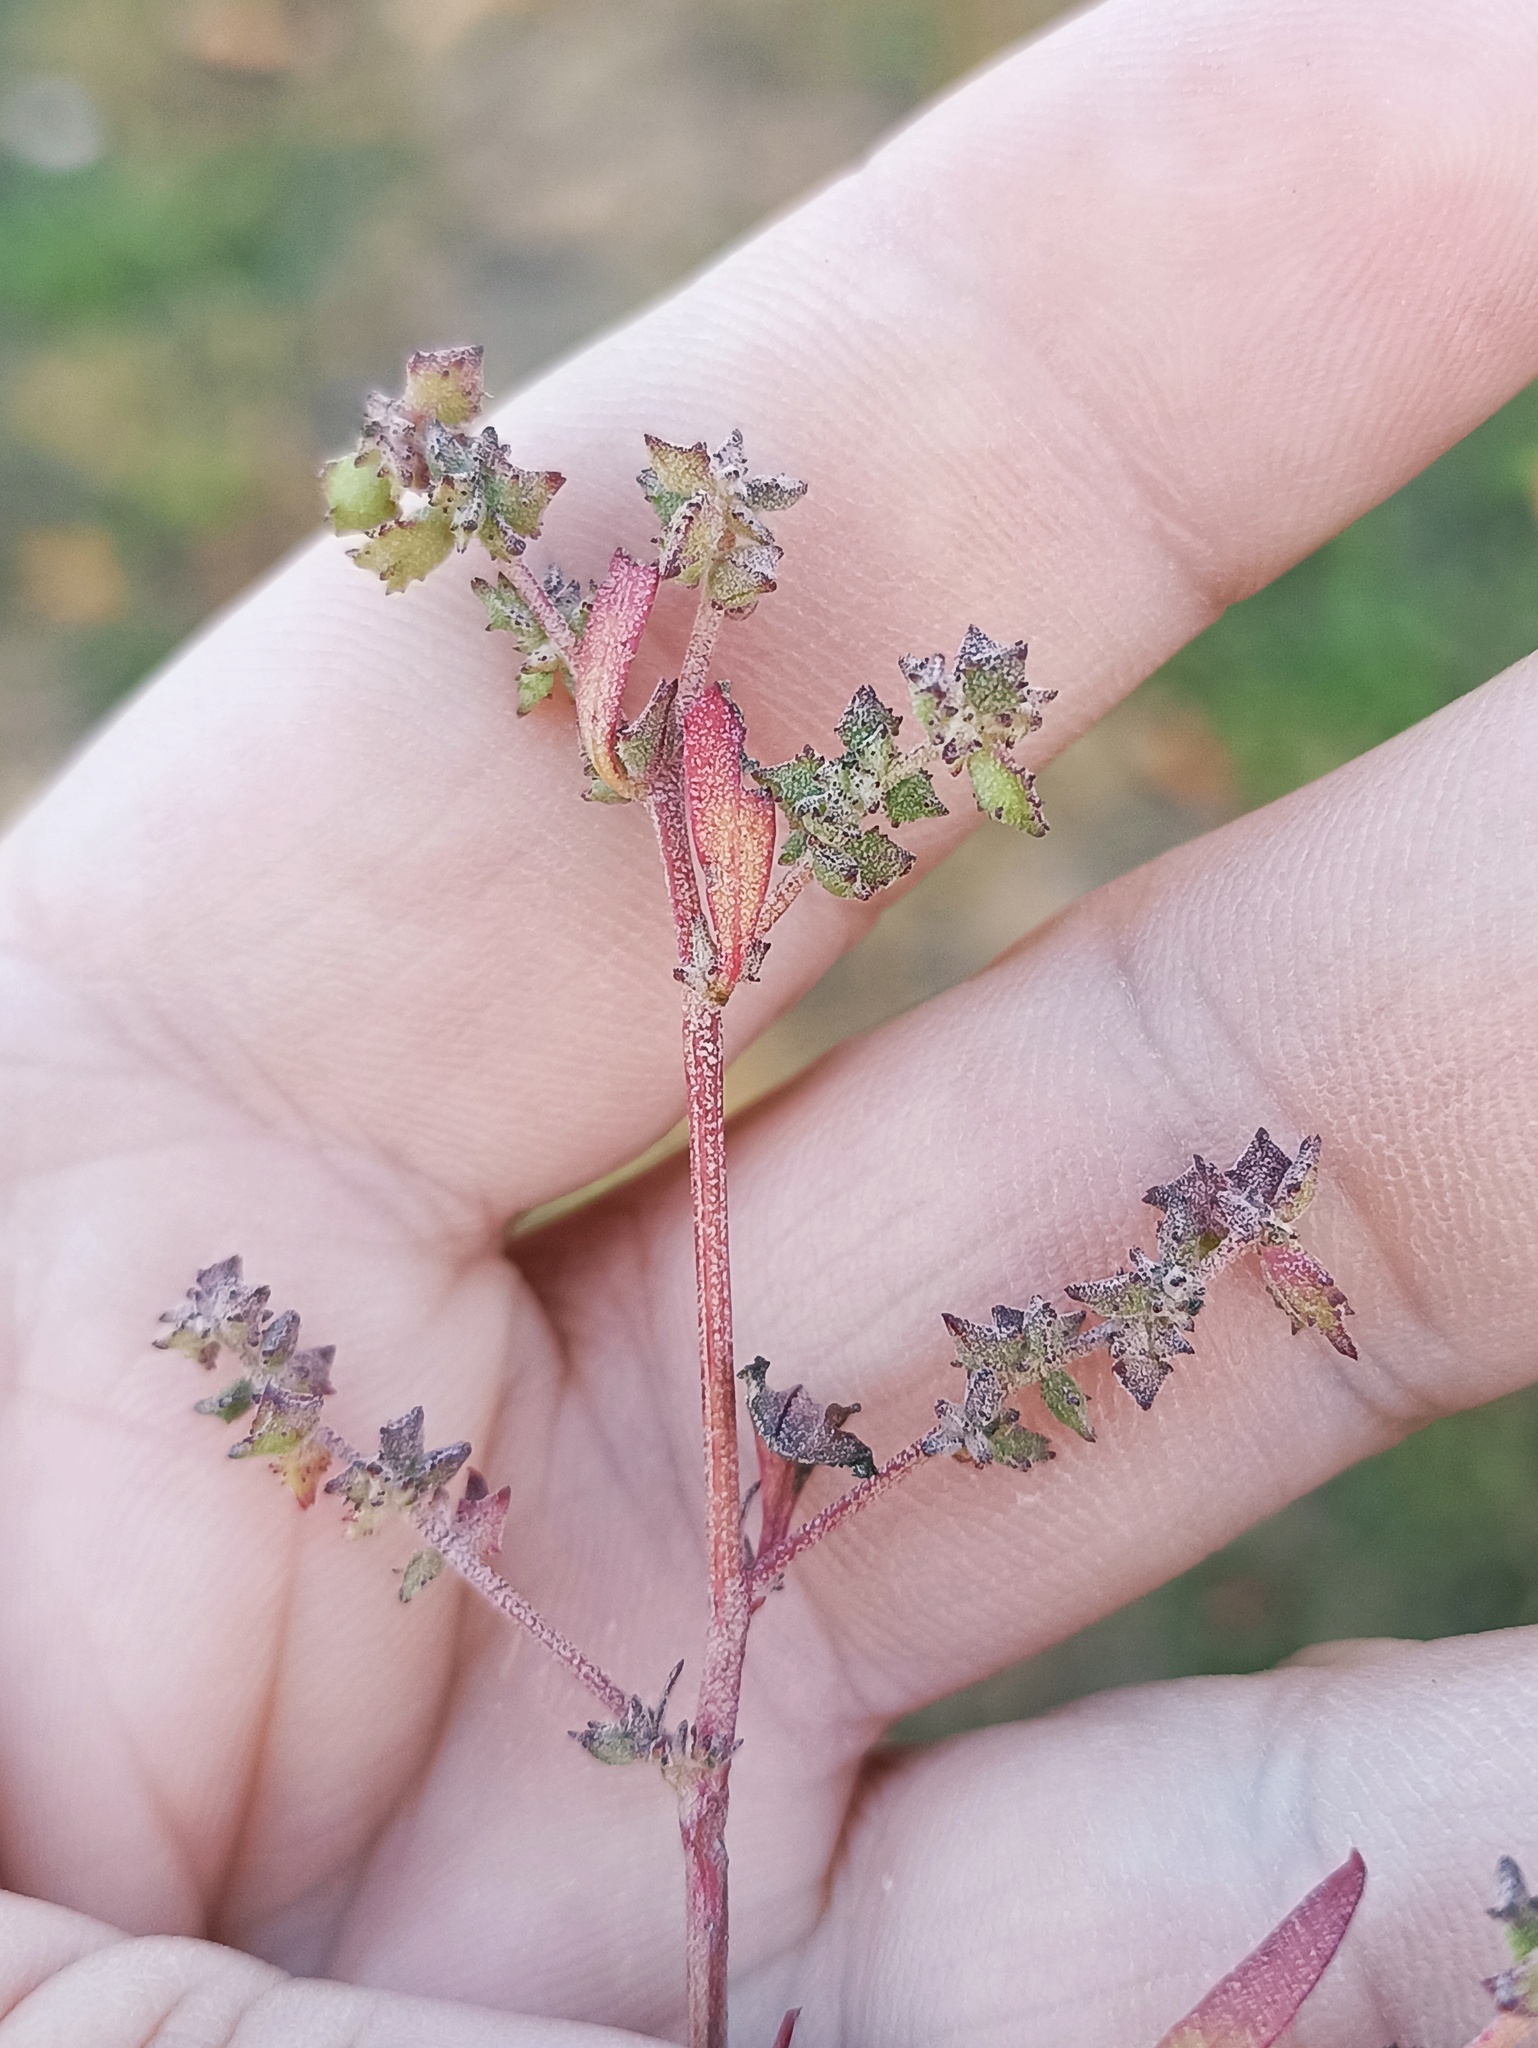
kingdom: Plantae
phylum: Tracheophyta
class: Magnoliopsida
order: Caryophyllales
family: Amaranthaceae
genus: Atriplex
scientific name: Atriplex patula
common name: Common orache
